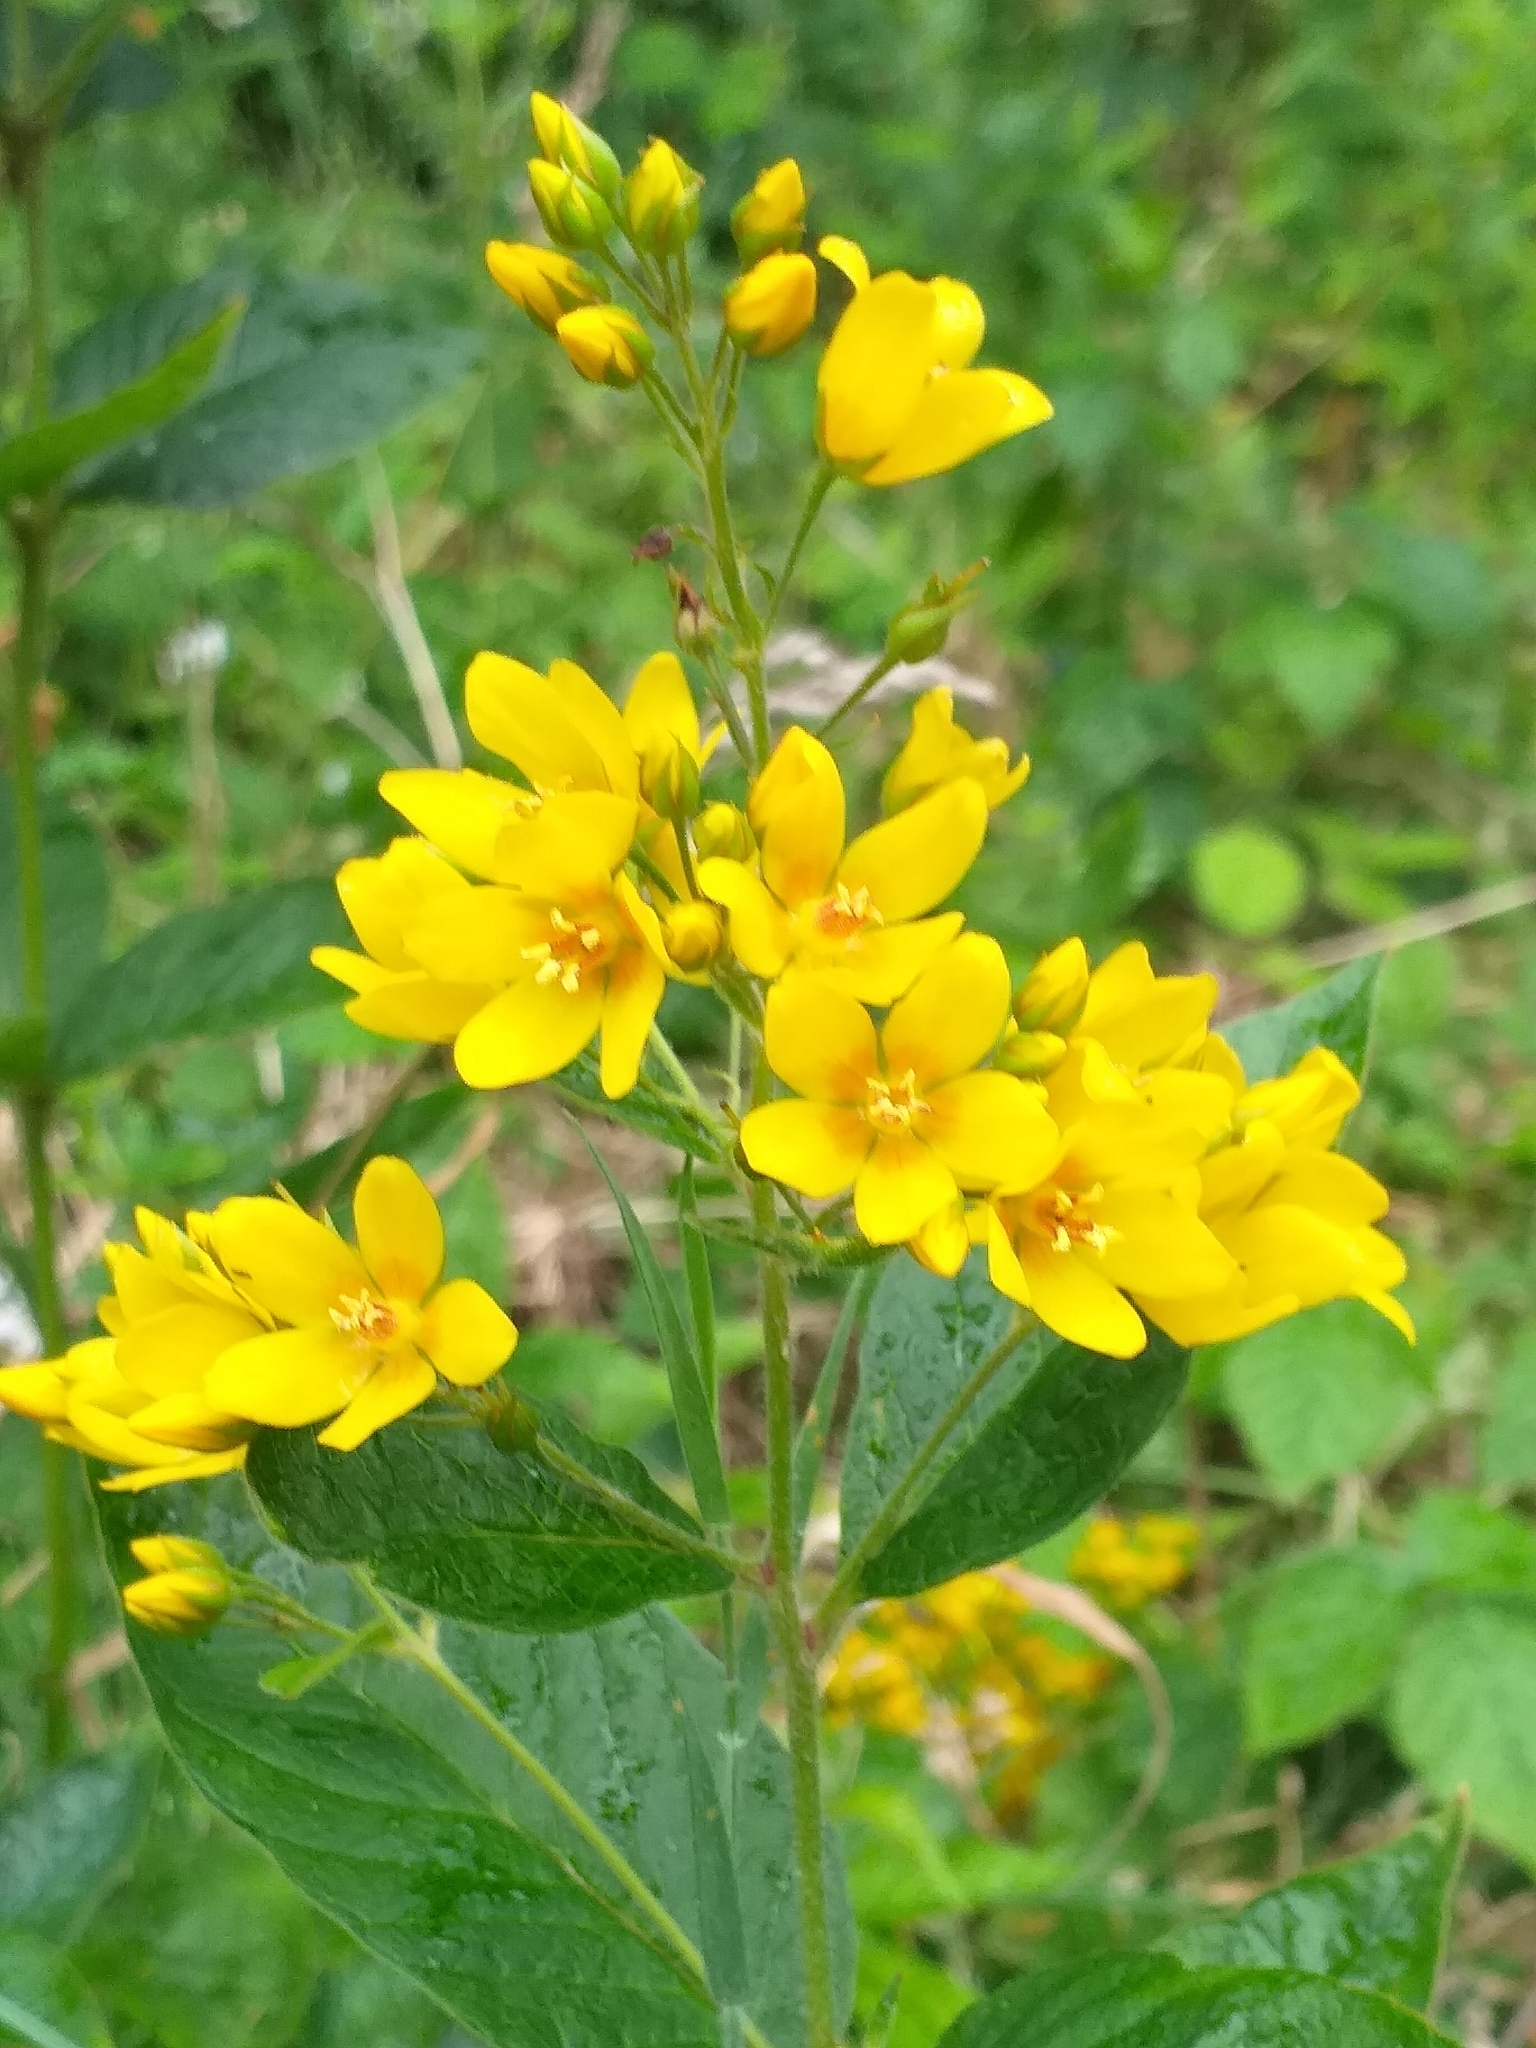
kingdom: Plantae
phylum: Tracheophyta
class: Magnoliopsida
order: Ericales
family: Primulaceae
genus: Lysimachia
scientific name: Lysimachia vulgaris
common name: Yellow loosestrife
